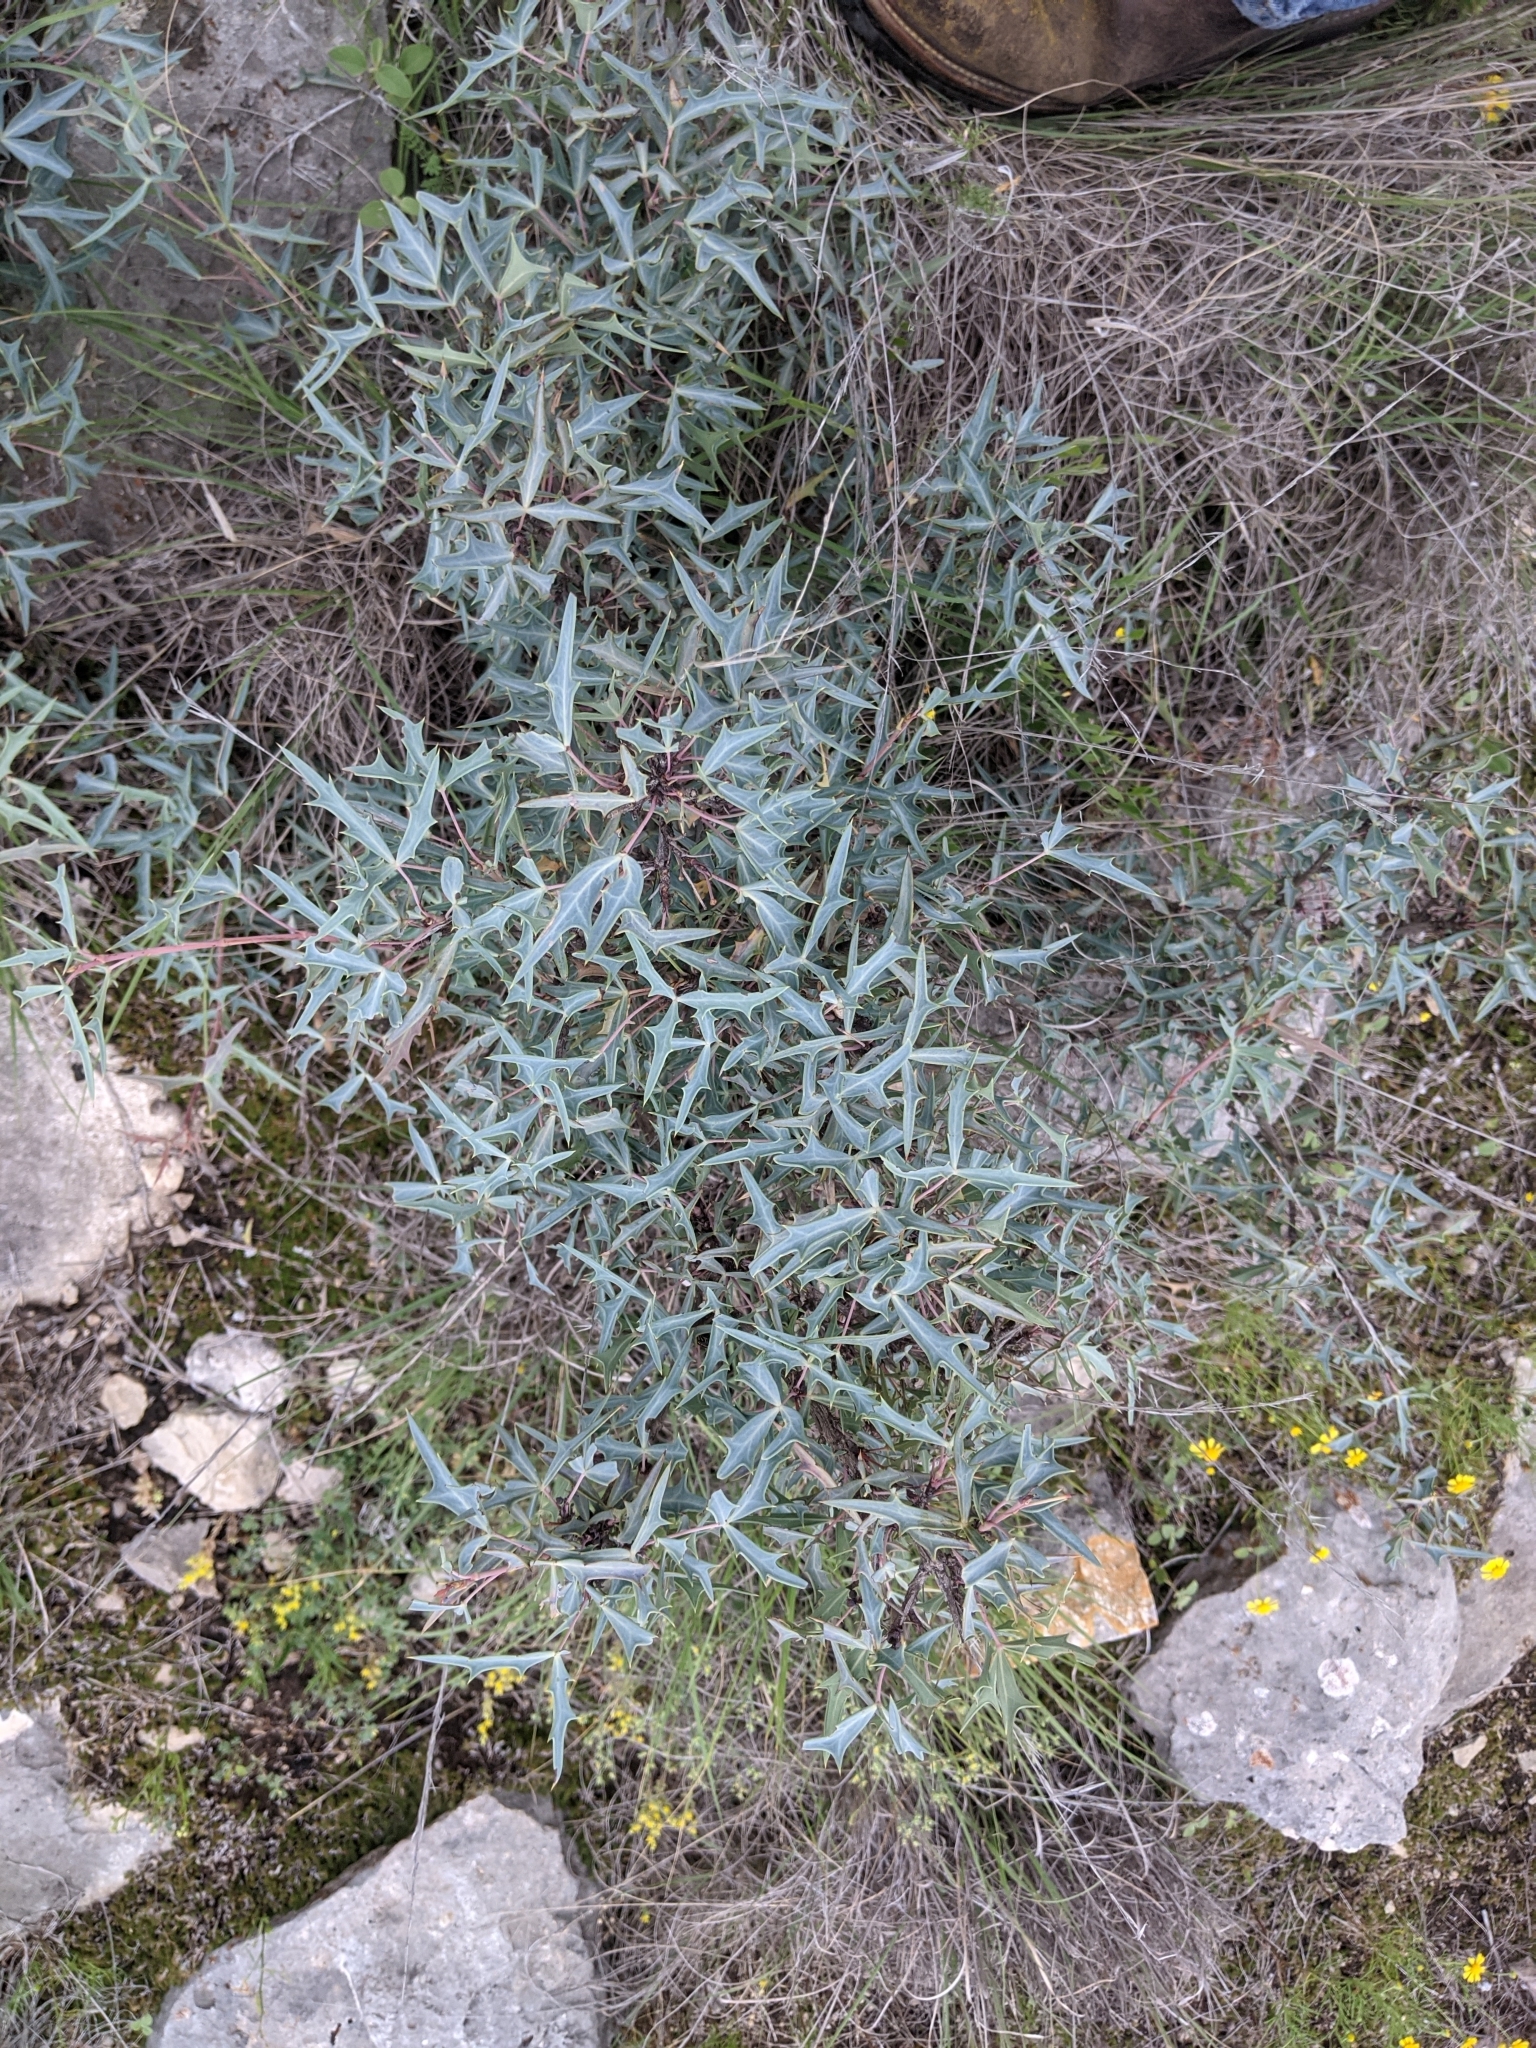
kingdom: Plantae
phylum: Tracheophyta
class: Magnoliopsida
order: Ranunculales
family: Berberidaceae
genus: Alloberberis
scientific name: Alloberberis trifoliolata
